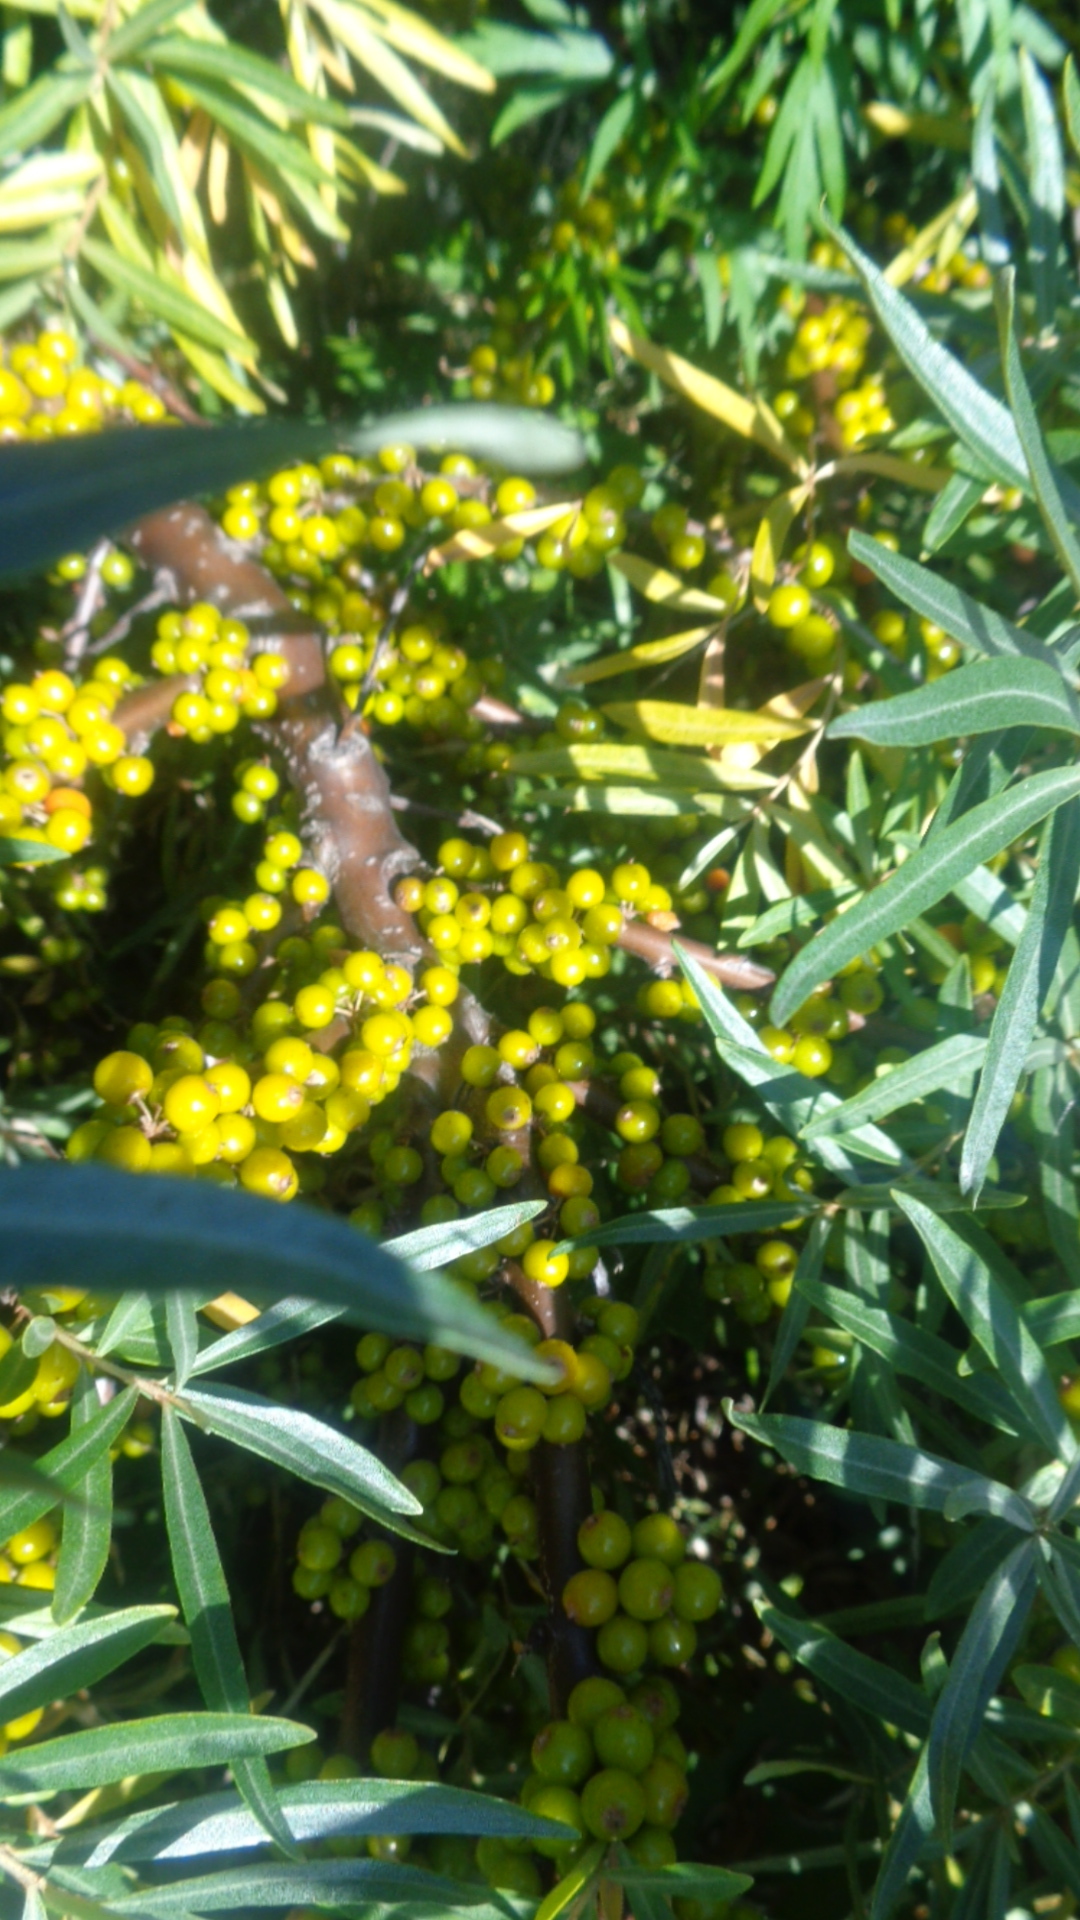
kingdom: Plantae
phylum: Tracheophyta
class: Magnoliopsida
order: Rosales
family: Elaeagnaceae
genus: Hippophae
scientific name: Hippophae rhamnoides
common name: Sea-buckthorn
